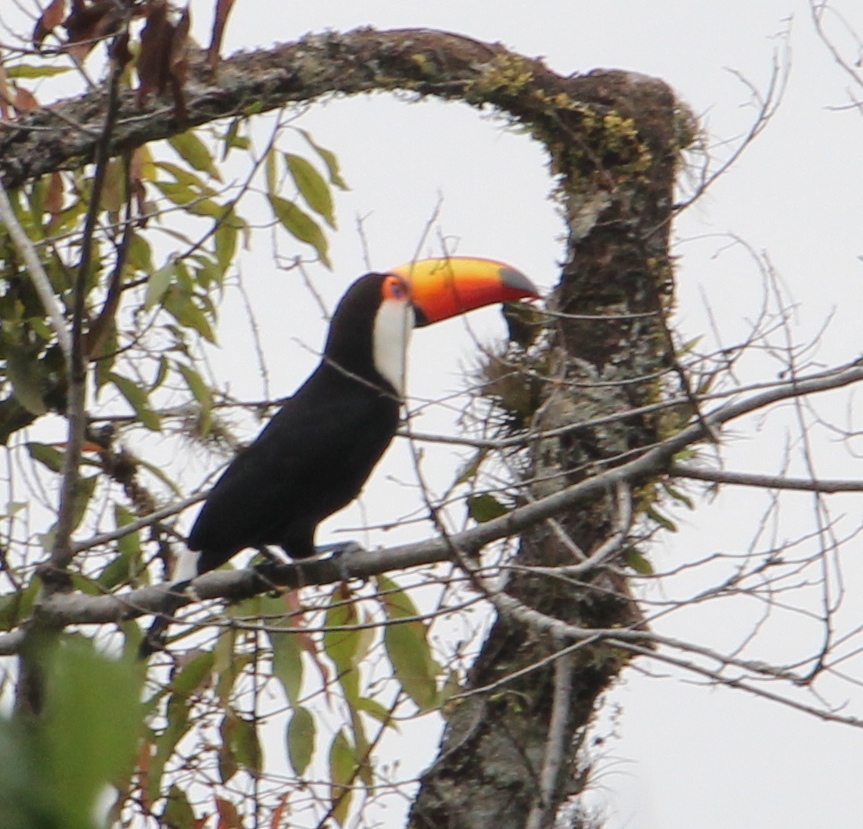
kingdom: Animalia
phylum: Chordata
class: Aves
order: Piciformes
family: Ramphastidae
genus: Ramphastos
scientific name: Ramphastos toco
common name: Toco toucan
